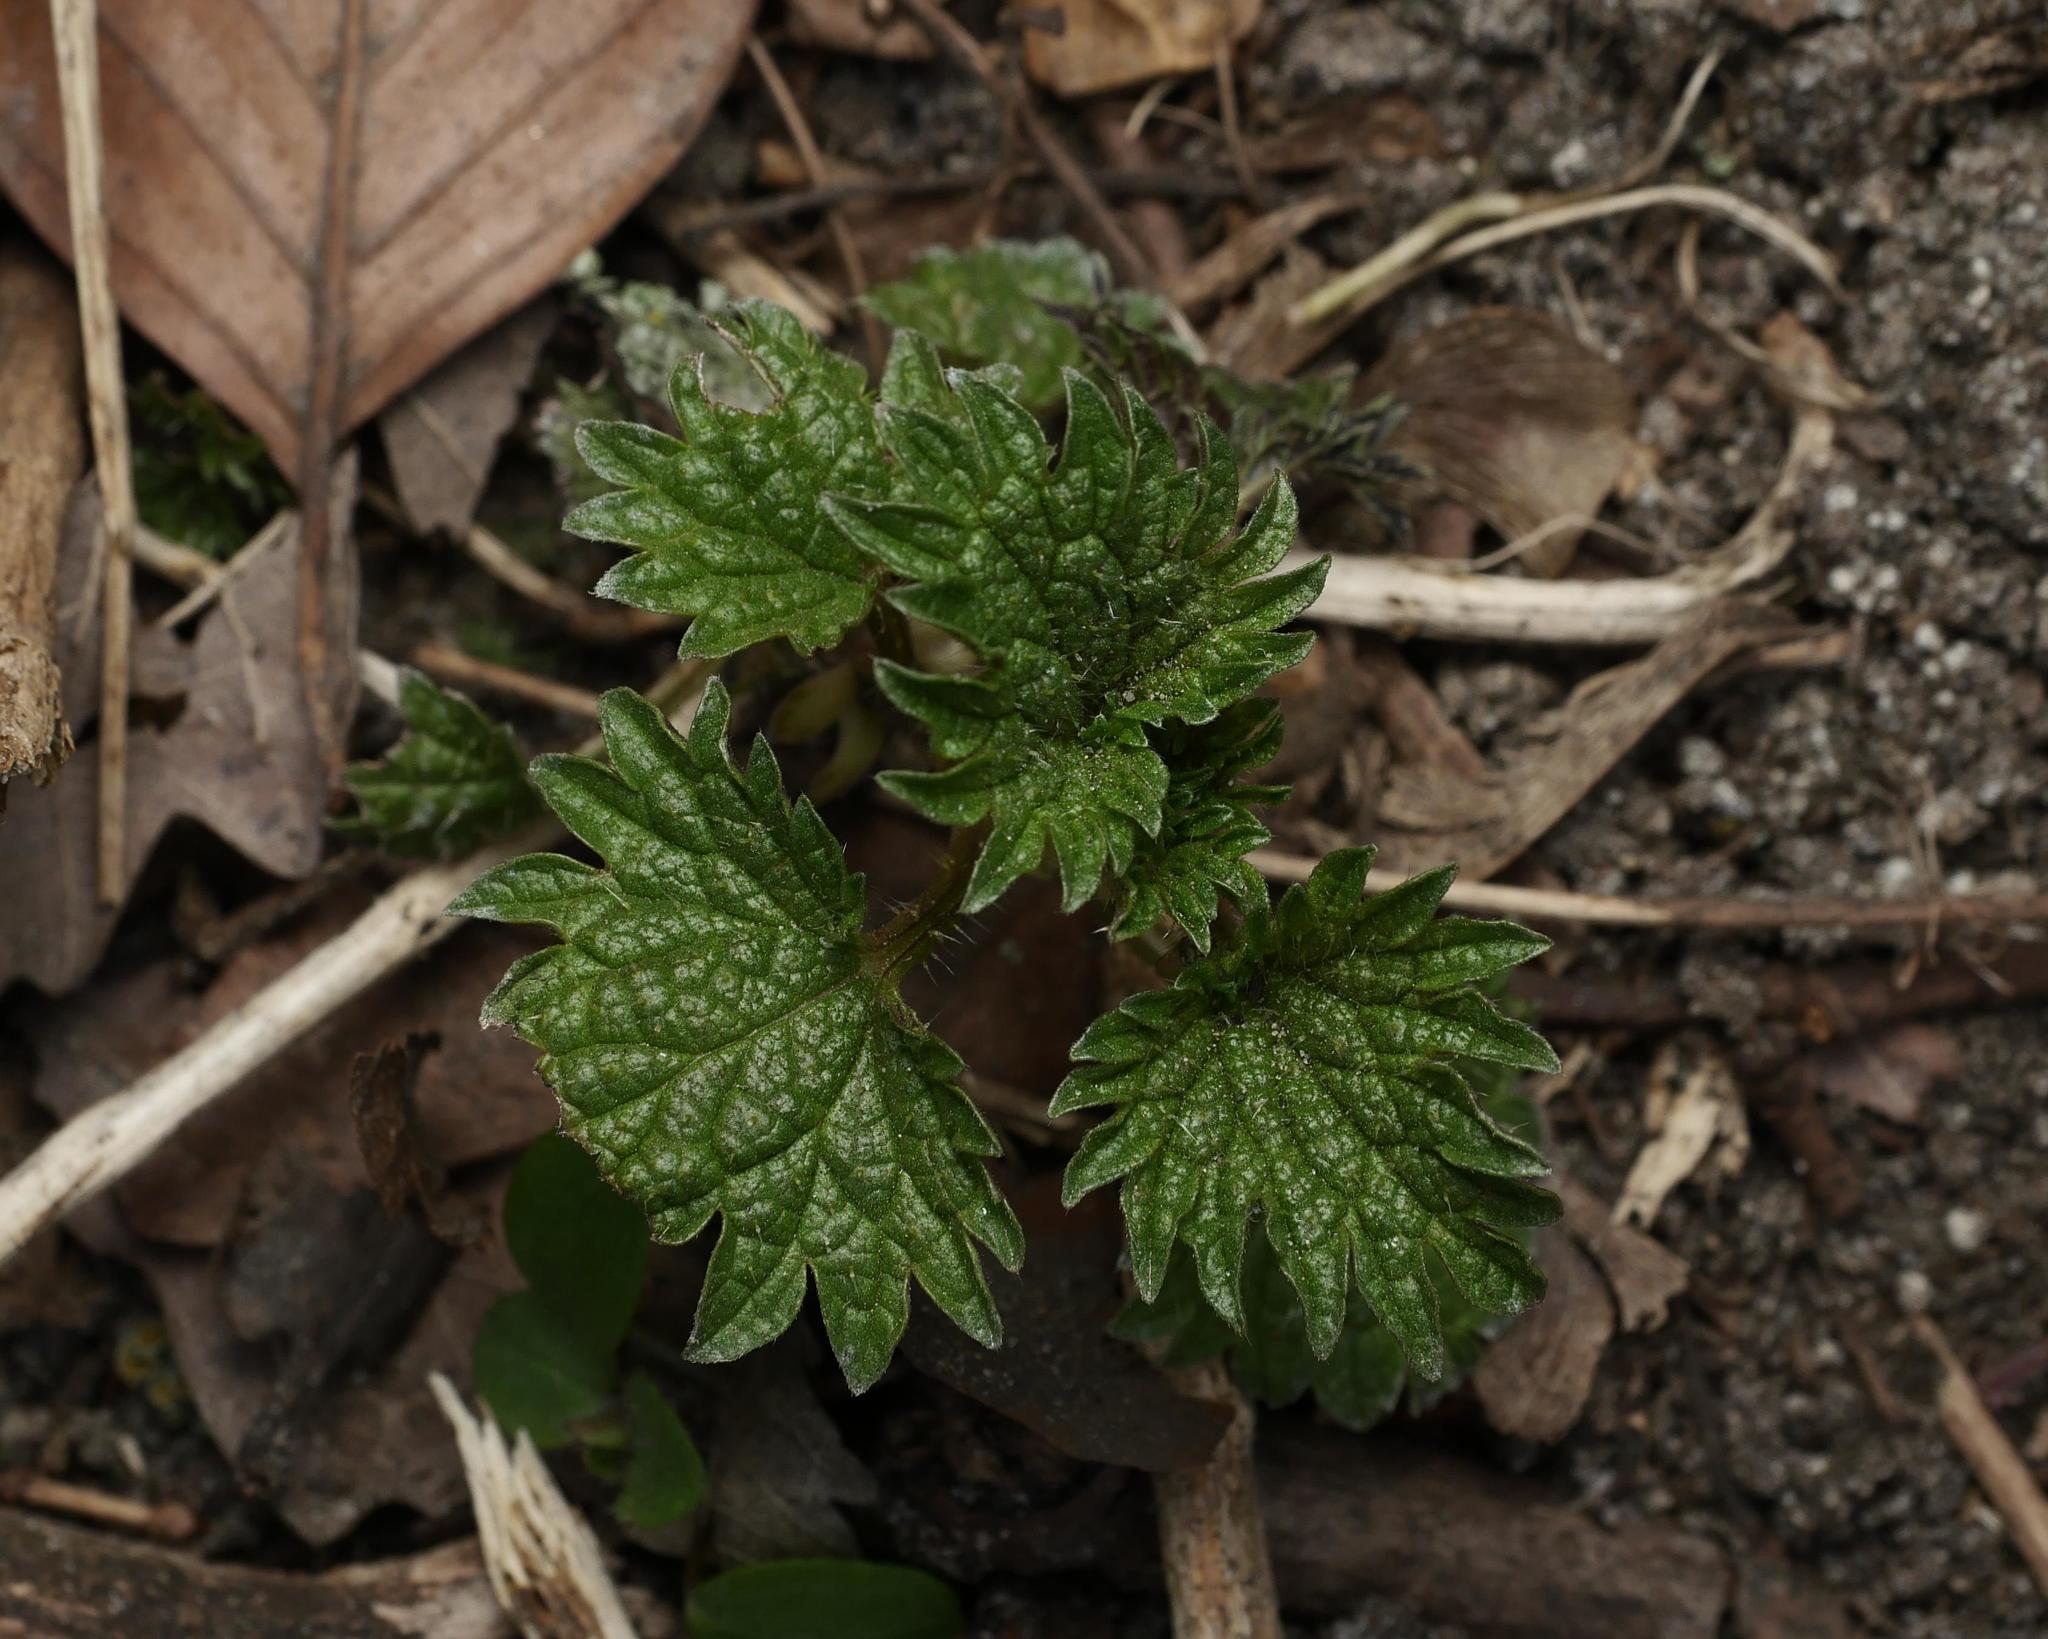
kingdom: Plantae
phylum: Tracheophyta
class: Magnoliopsida
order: Rosales
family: Urticaceae
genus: Urtica
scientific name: Urtica dioica
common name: Common nettle
